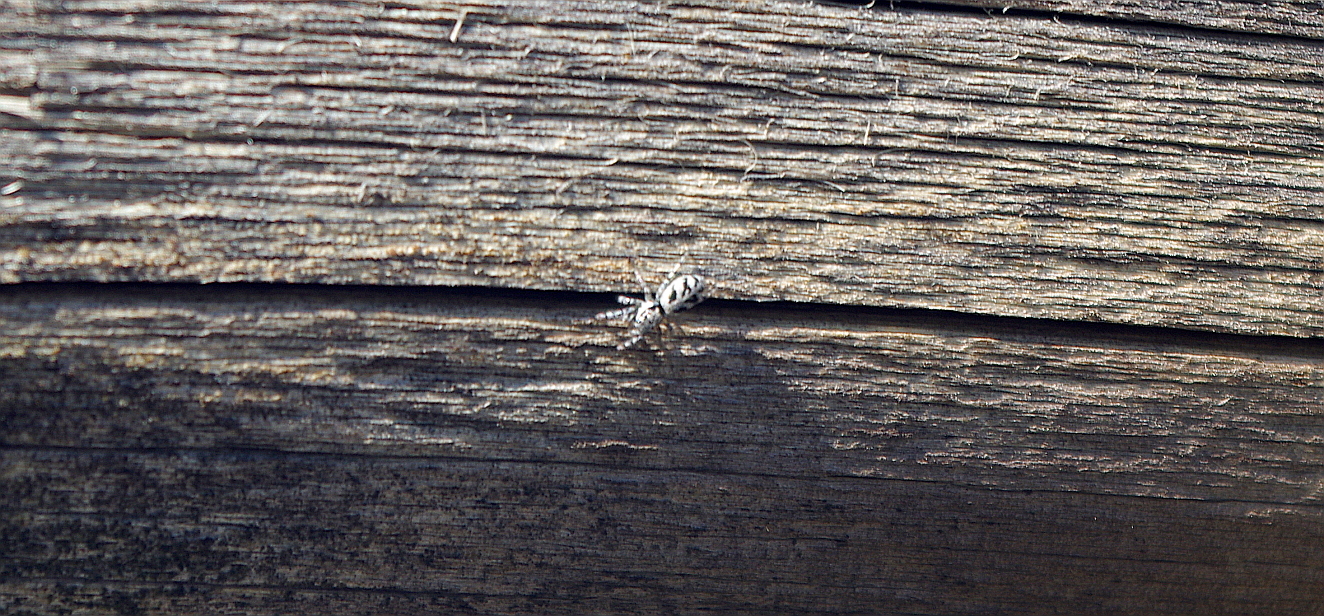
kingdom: Animalia
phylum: Arthropoda
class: Arachnida
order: Araneae
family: Salticidae
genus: Salticus
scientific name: Salticus cingulatus
